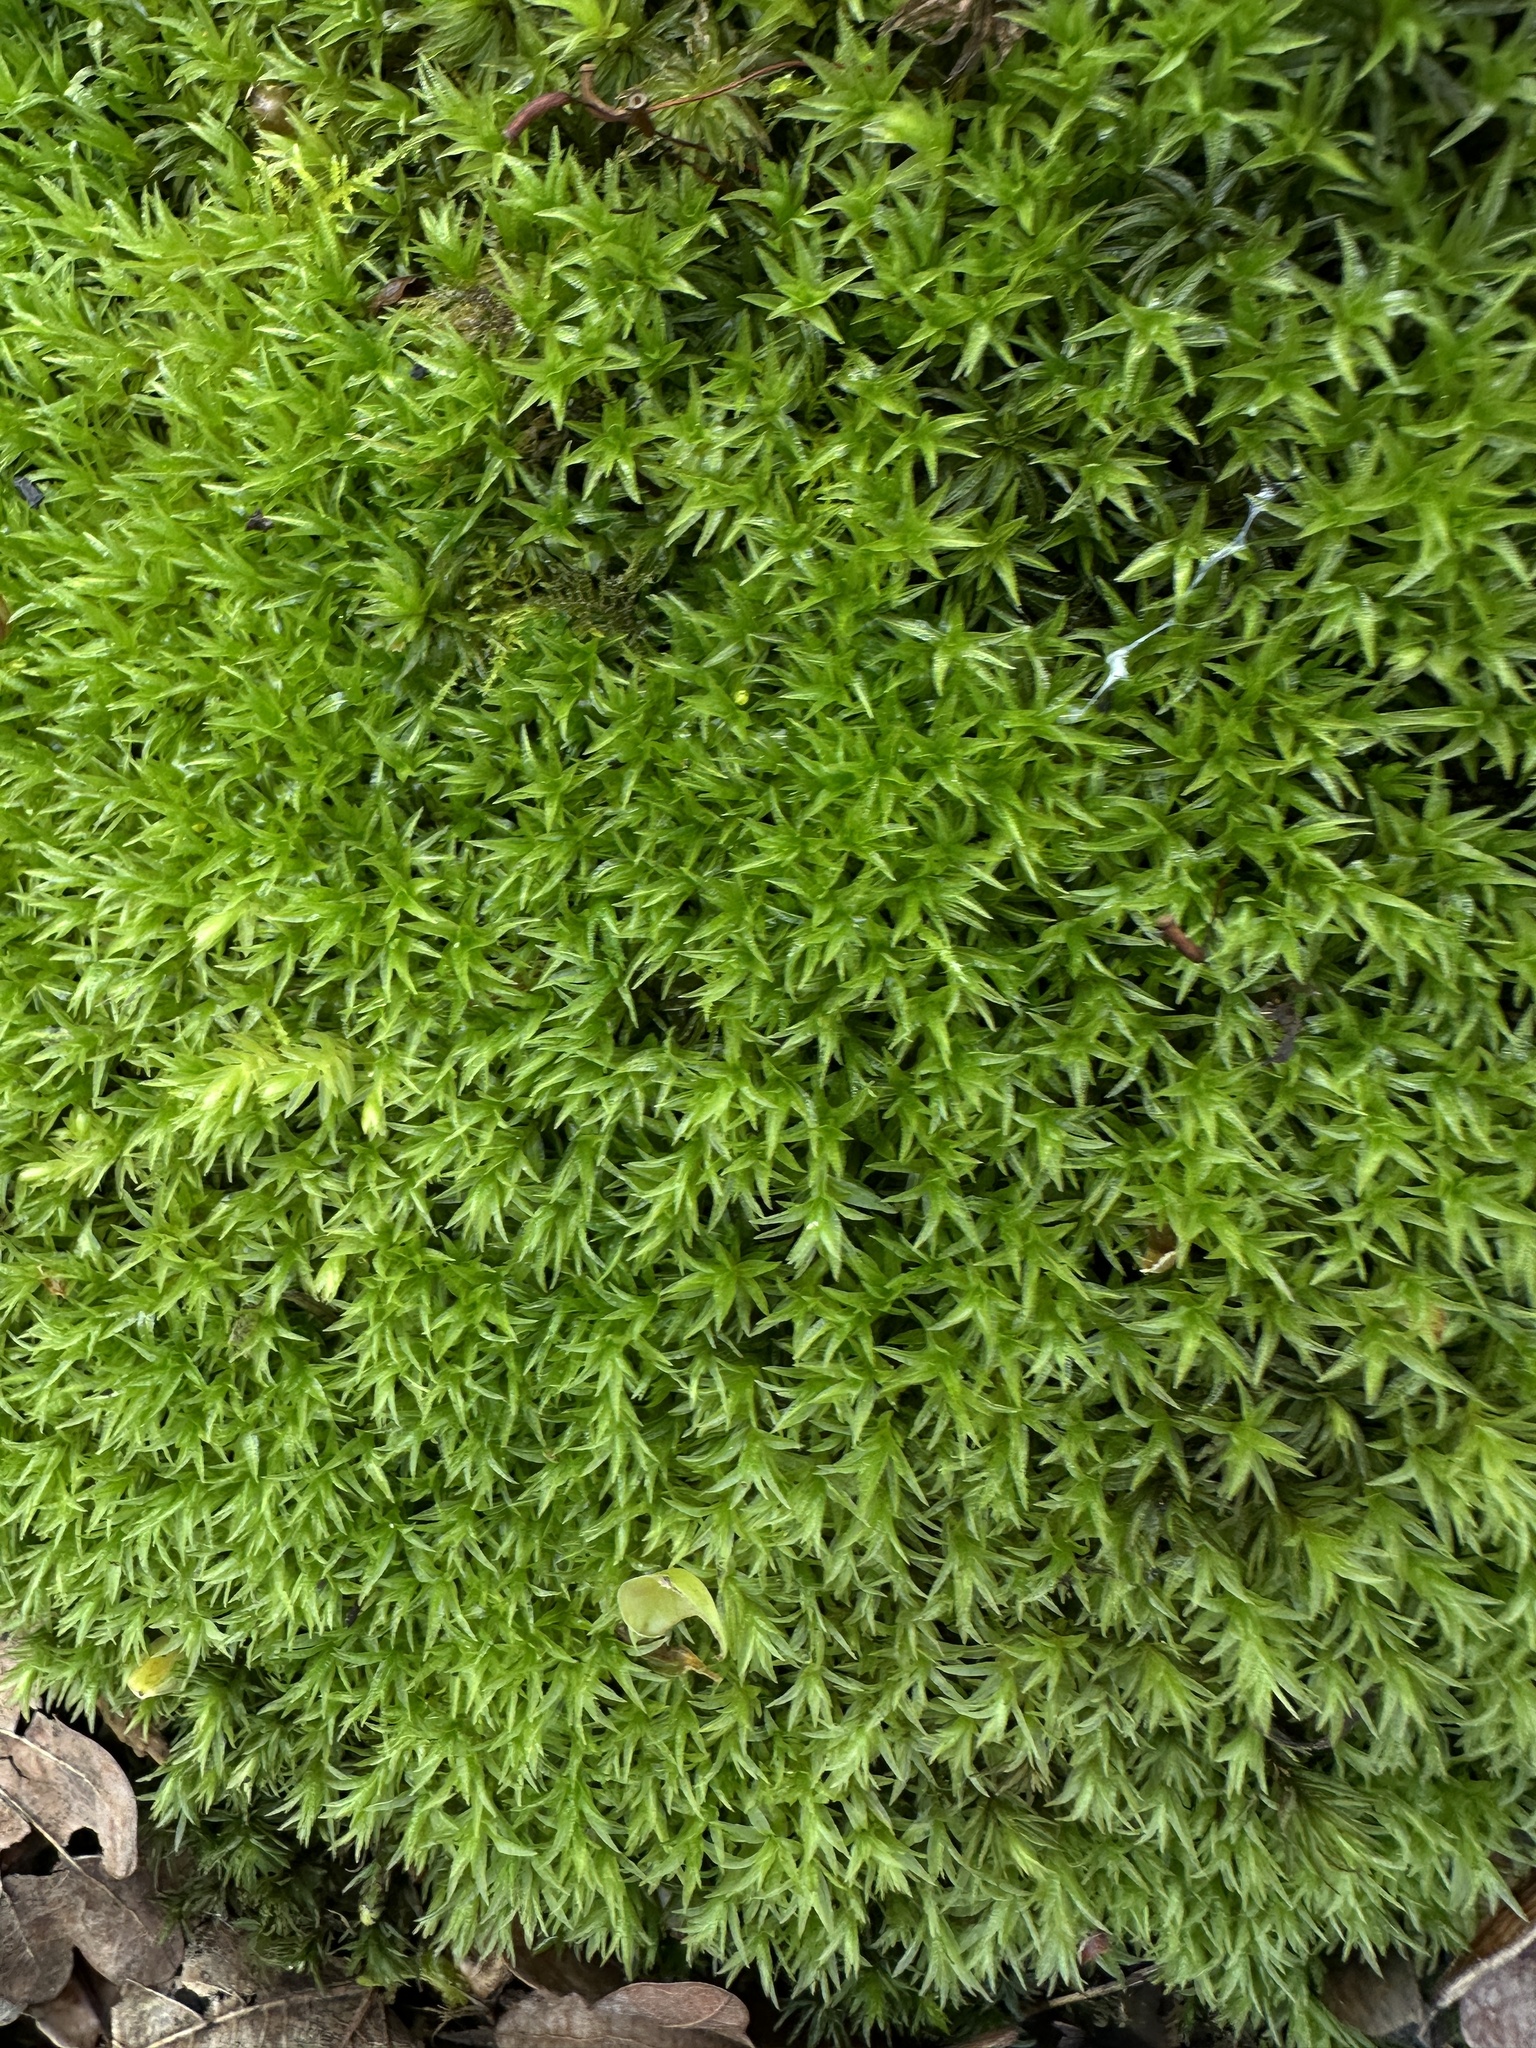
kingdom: Plantae
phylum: Bryophyta
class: Polytrichopsida
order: Polytrichales
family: Polytrichaceae
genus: Atrichum
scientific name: Atrichum undulatum
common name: Common smoothcap
